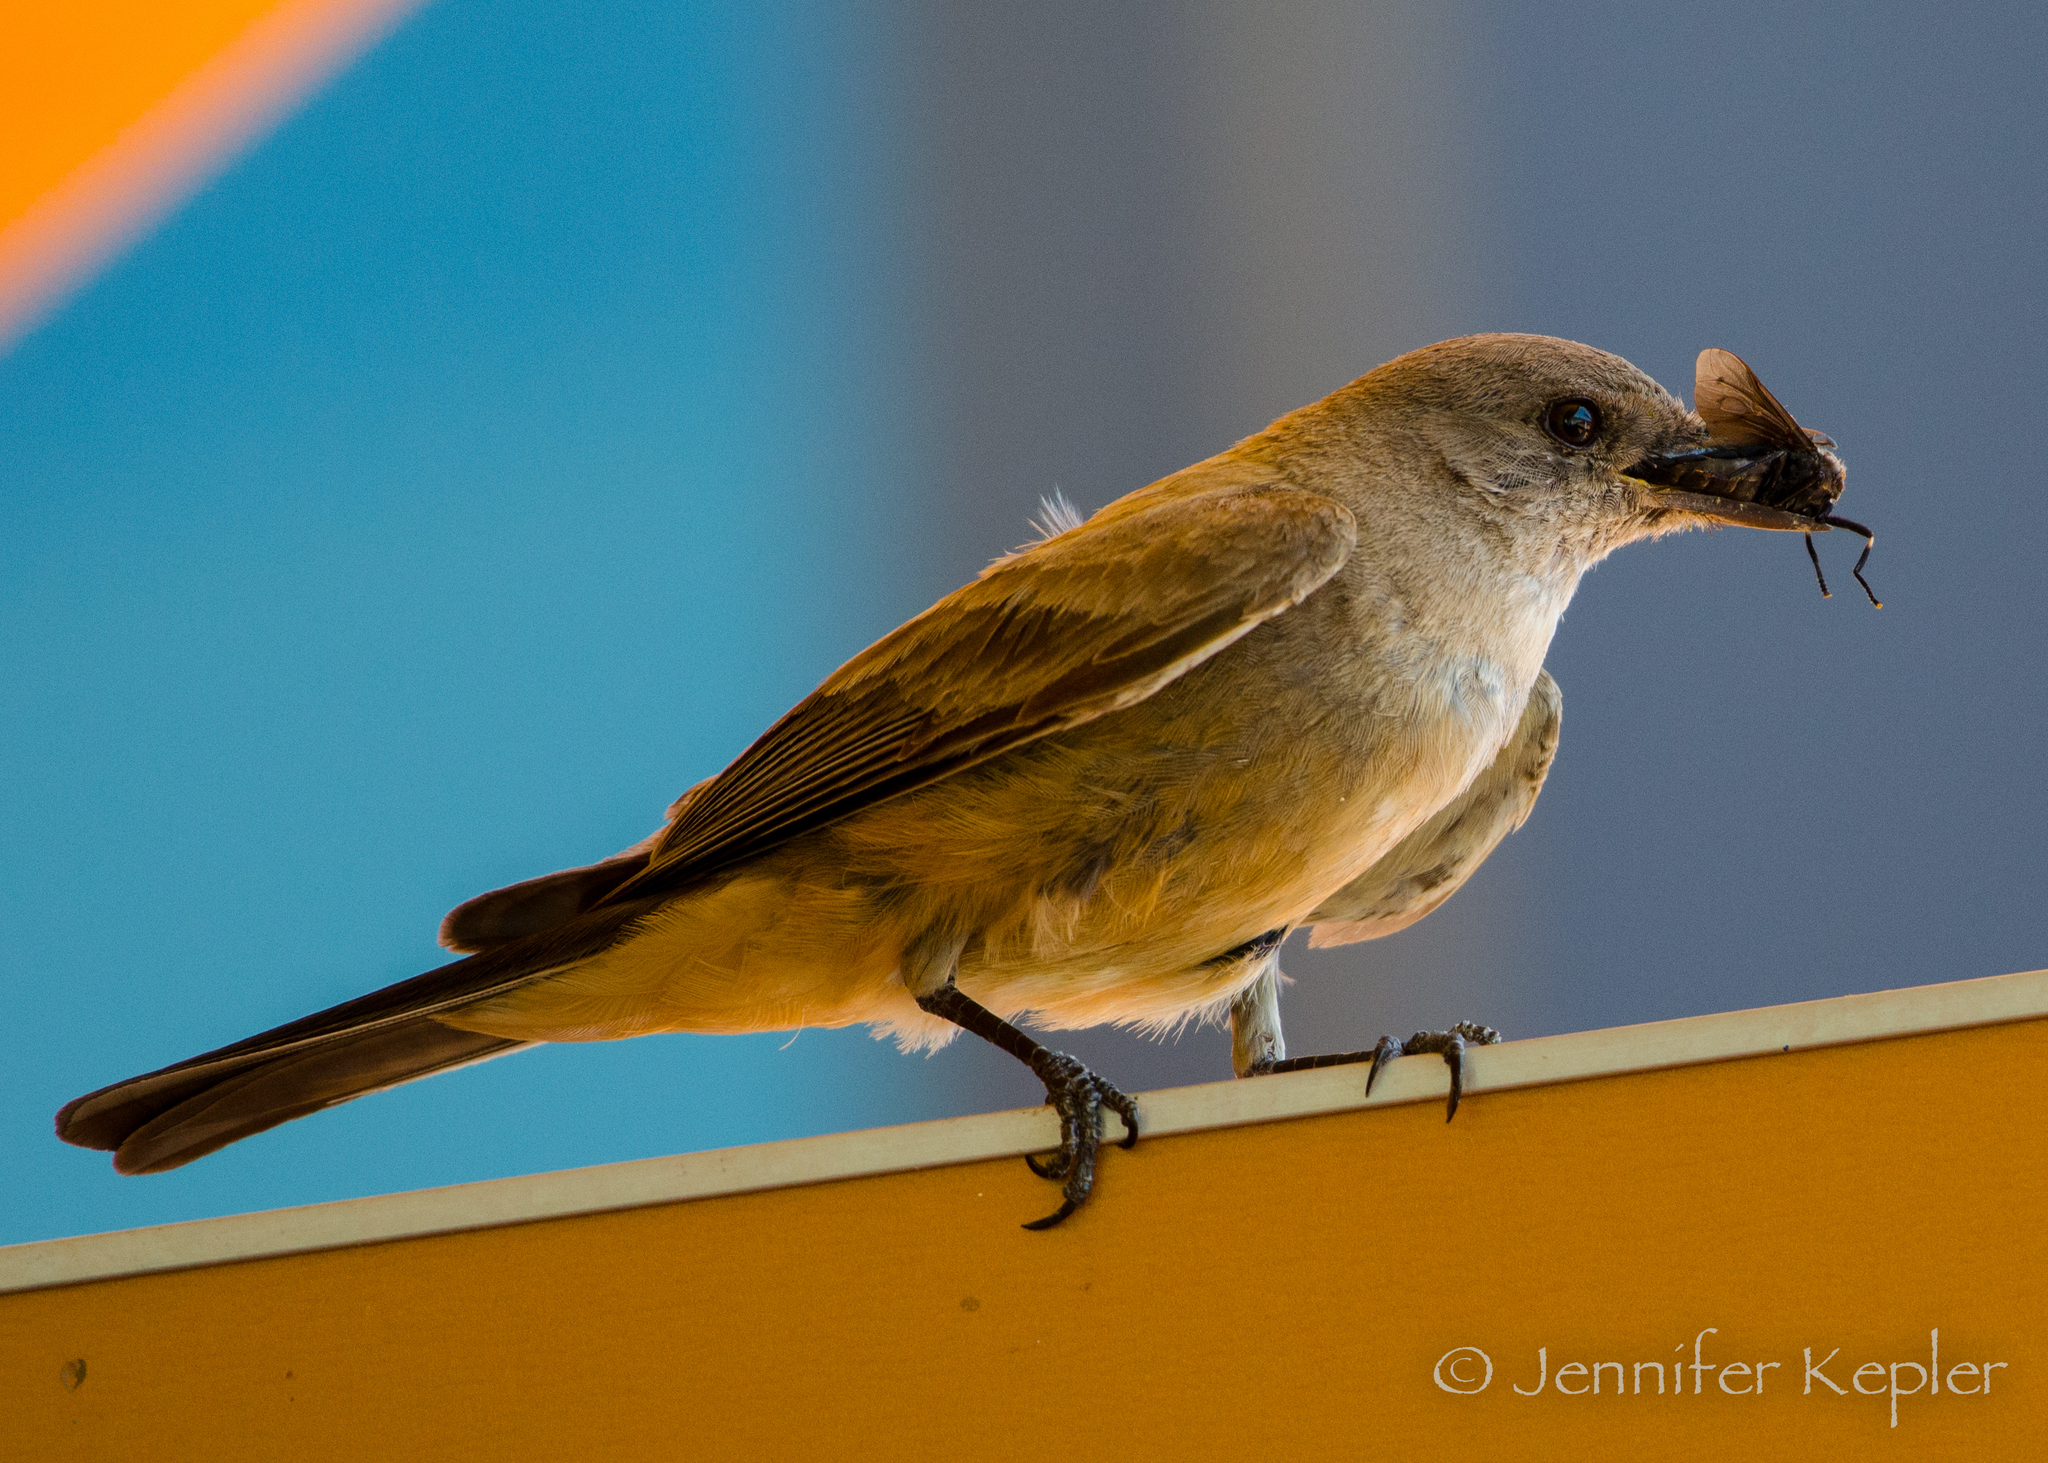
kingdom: Animalia
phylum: Chordata
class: Aves
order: Passeriformes
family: Tyrannidae
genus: Sayornis
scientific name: Sayornis saya
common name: Say's phoebe
